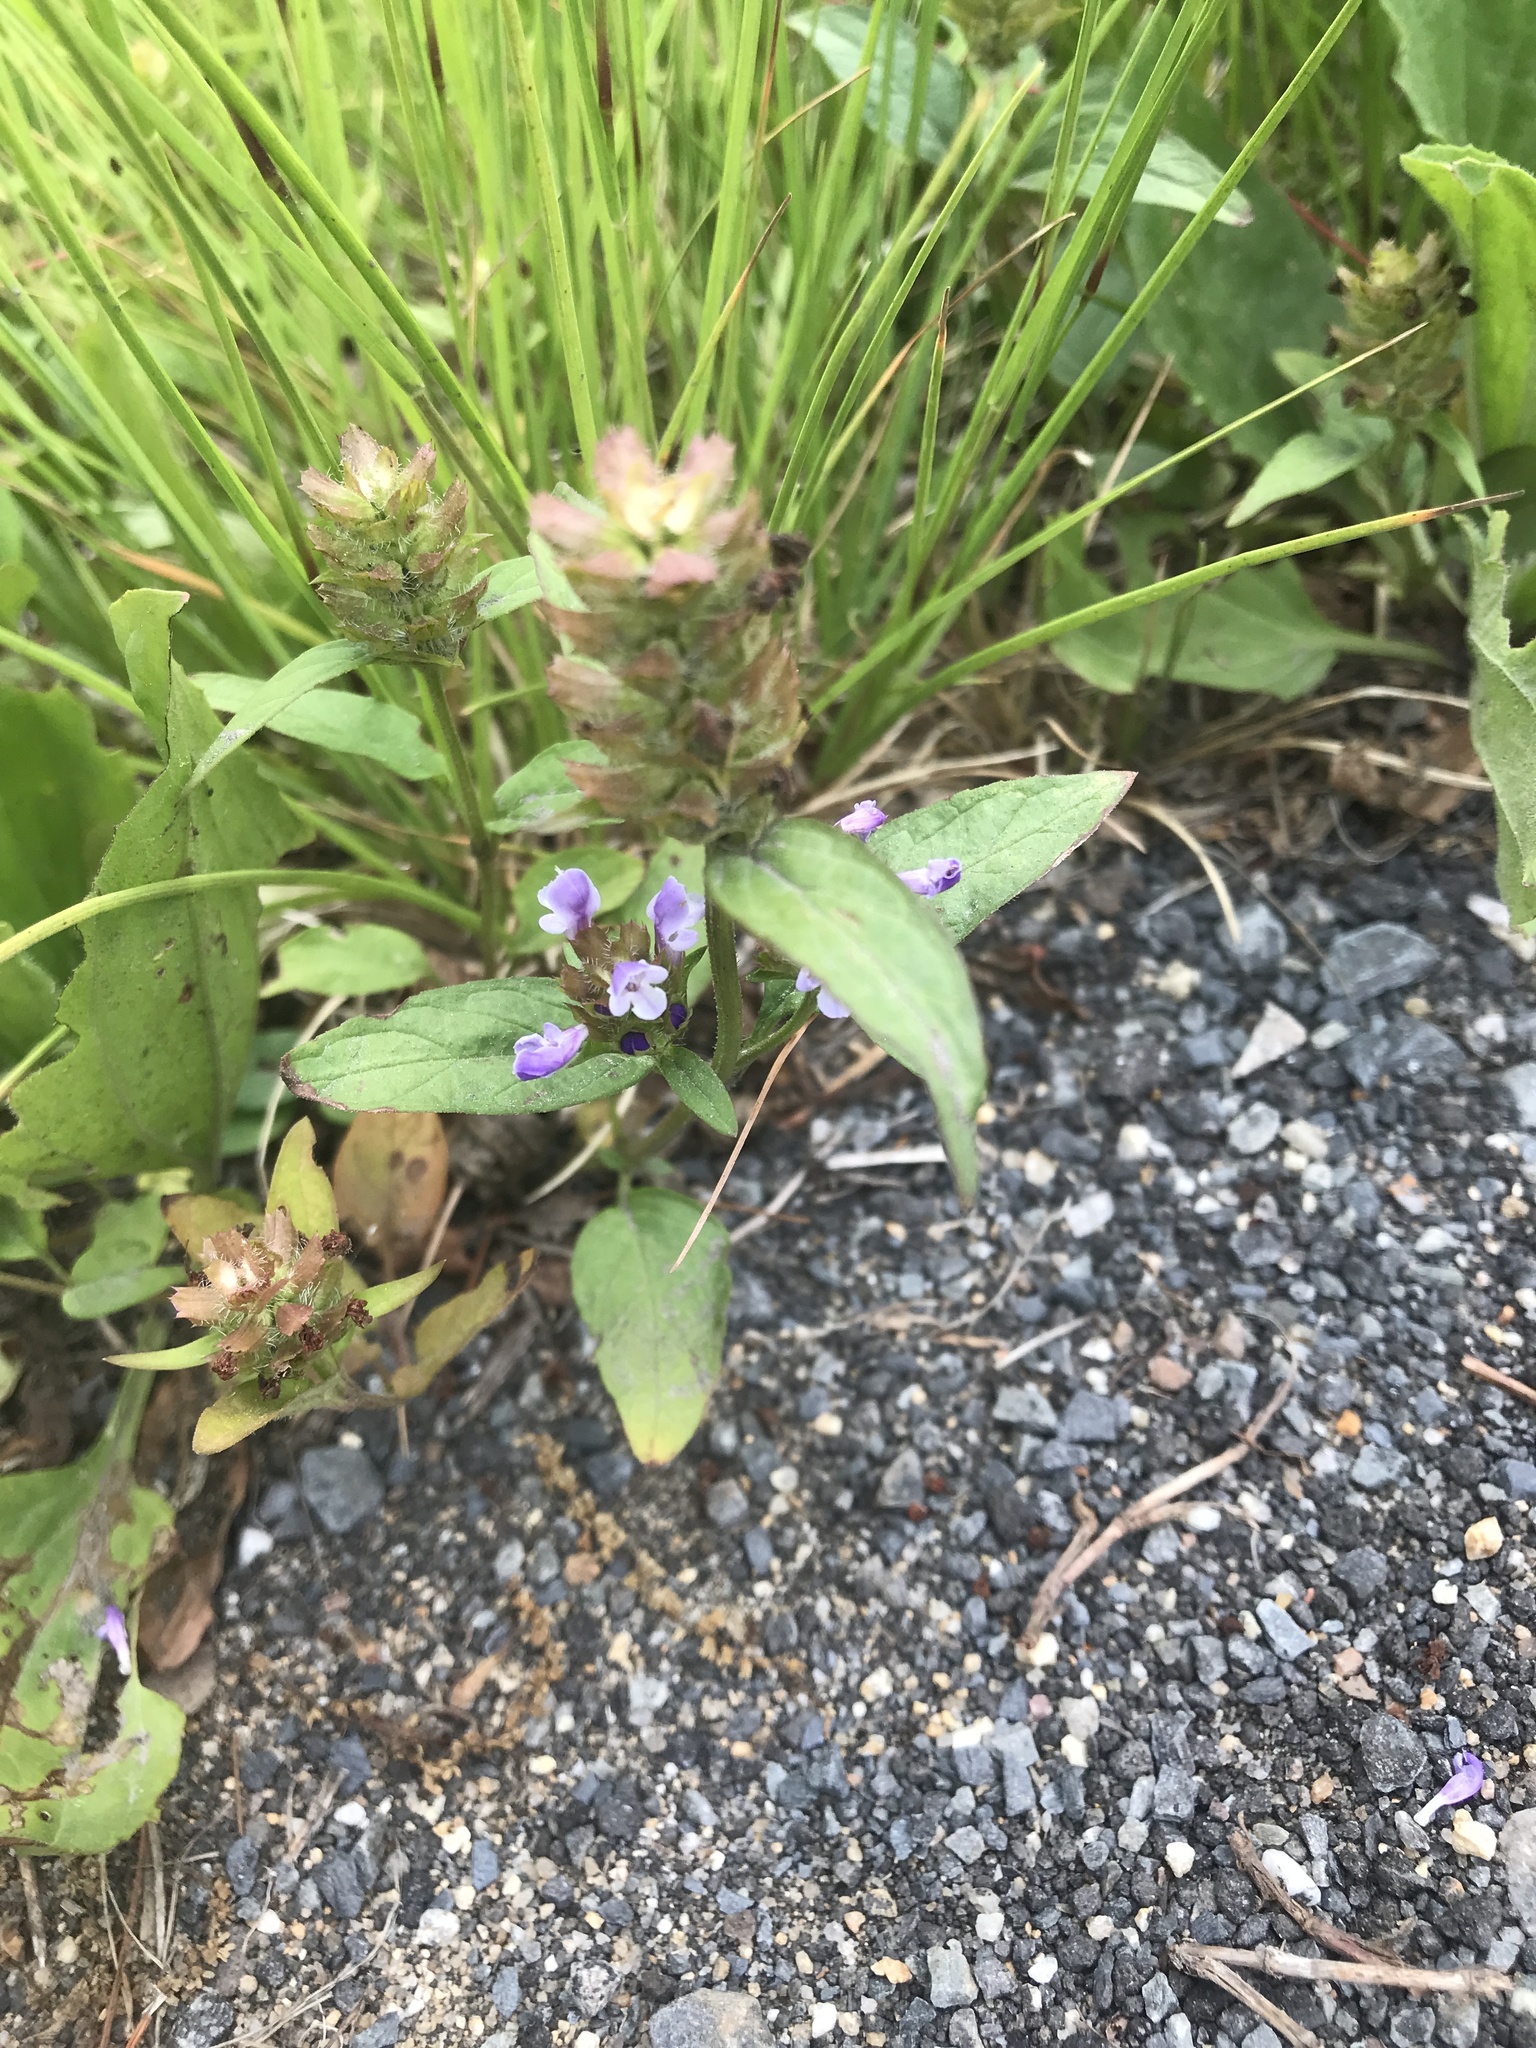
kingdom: Plantae
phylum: Tracheophyta
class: Magnoliopsida
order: Lamiales
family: Lamiaceae
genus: Prunella
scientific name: Prunella vulgaris
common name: Heal-all
